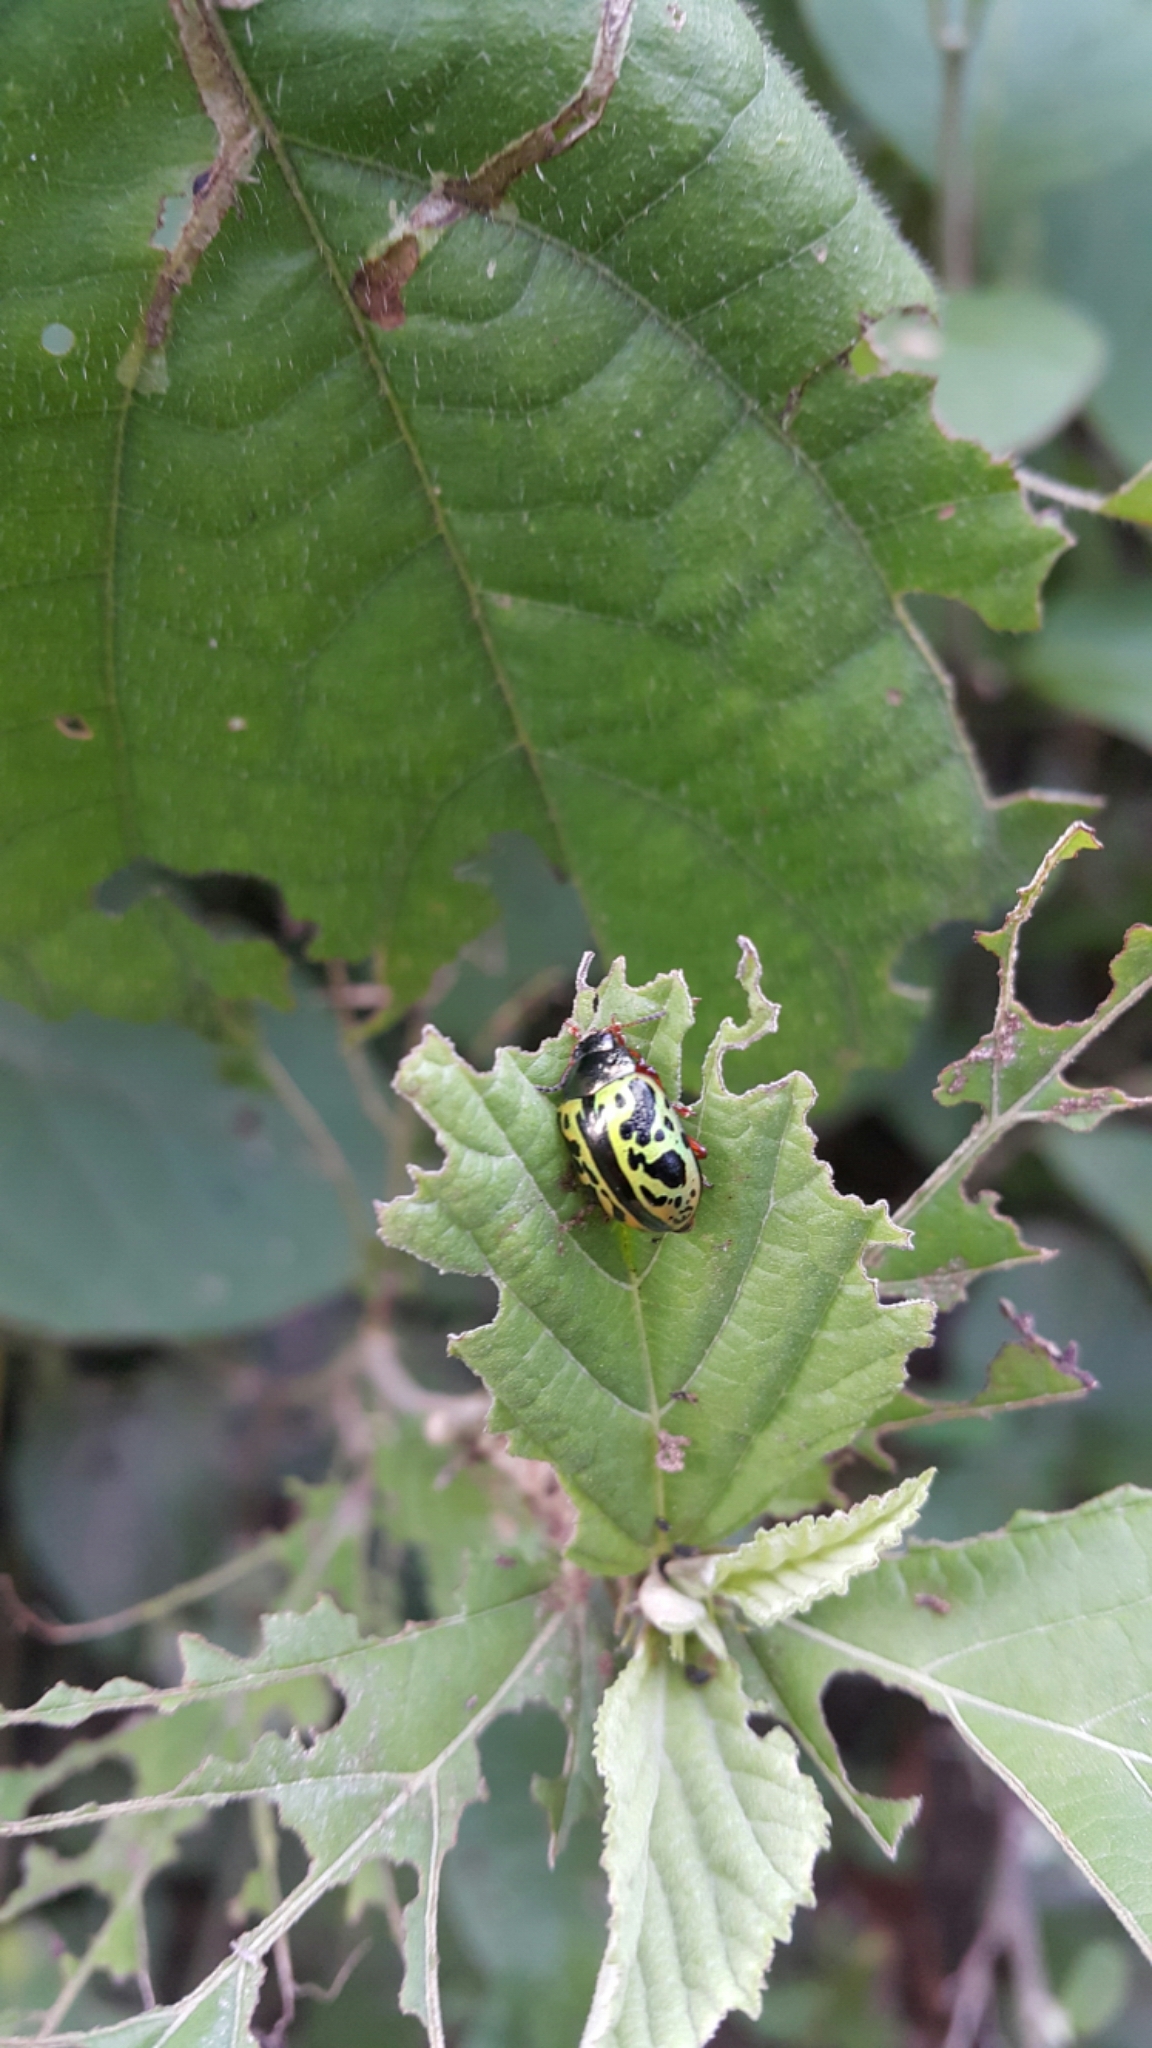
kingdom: Animalia
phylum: Arthropoda
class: Insecta
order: Coleoptera
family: Chrysomelidae
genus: Calligrapha
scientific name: Calligrapha fulvipes
